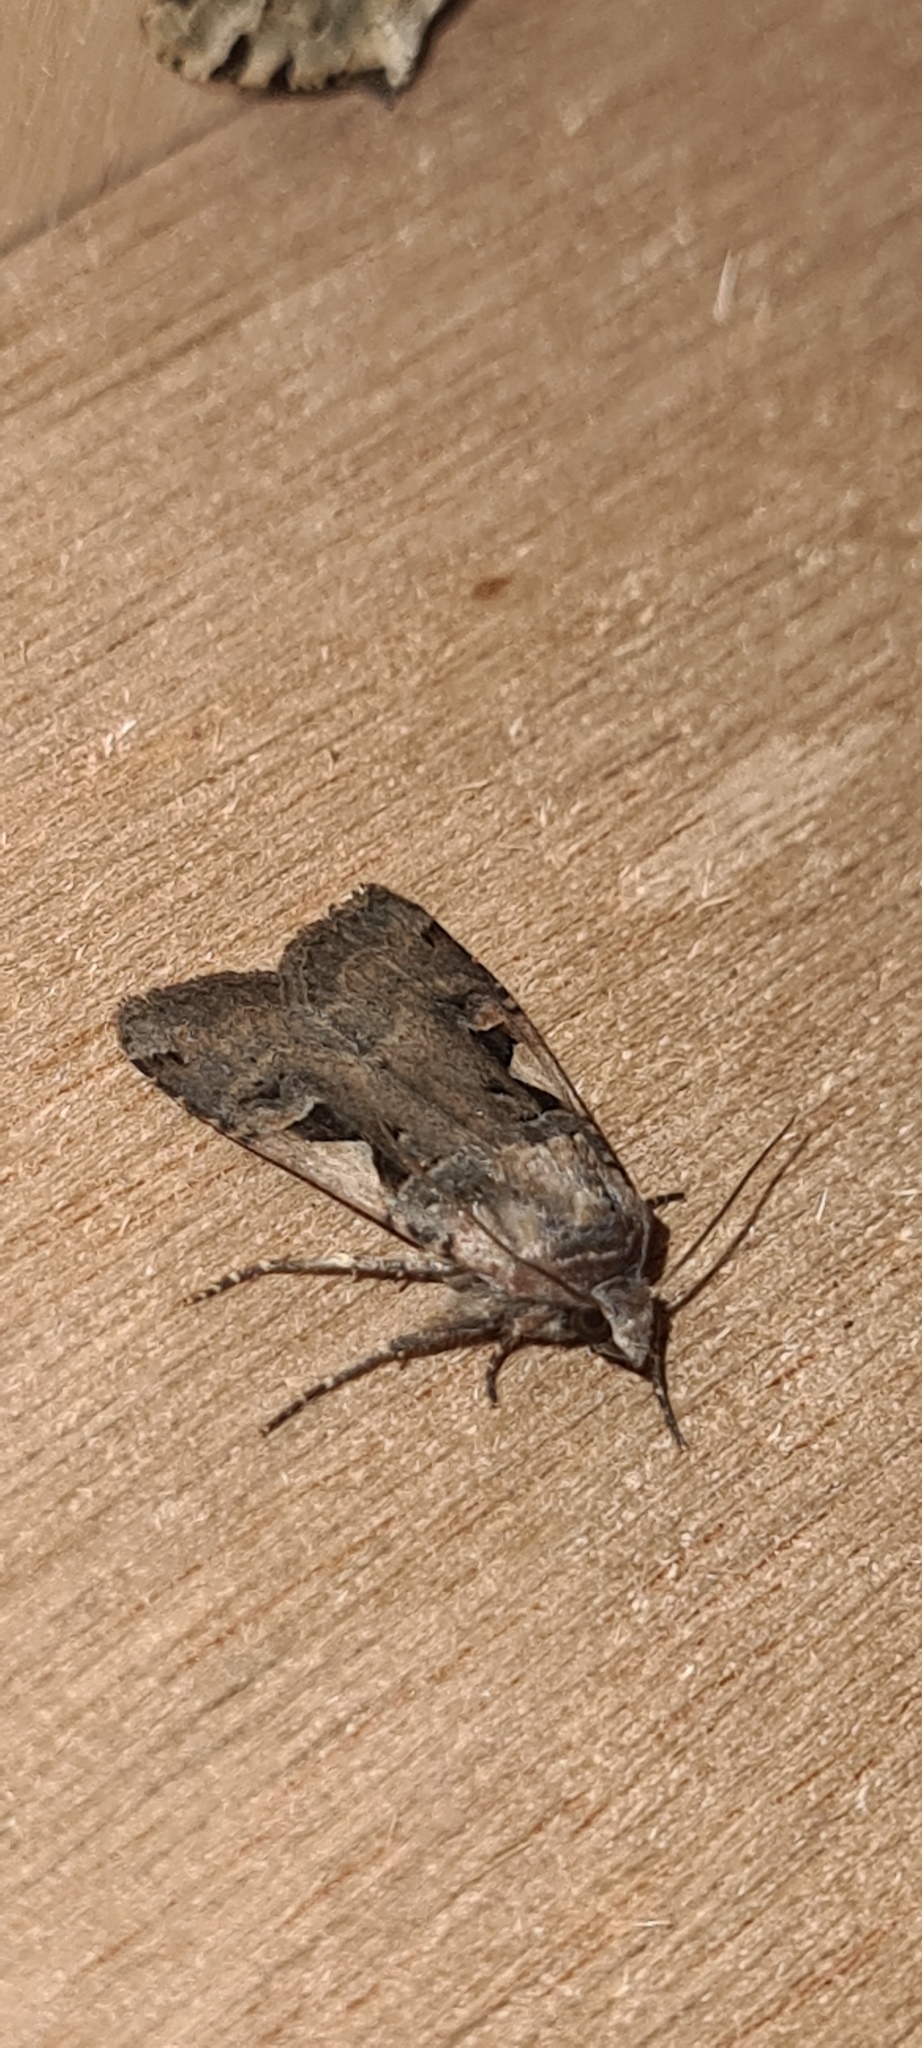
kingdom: Animalia
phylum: Arthropoda
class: Insecta
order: Lepidoptera
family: Noctuidae
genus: Xestia
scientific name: Xestia c-nigrum
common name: Setaceous hebrew character
